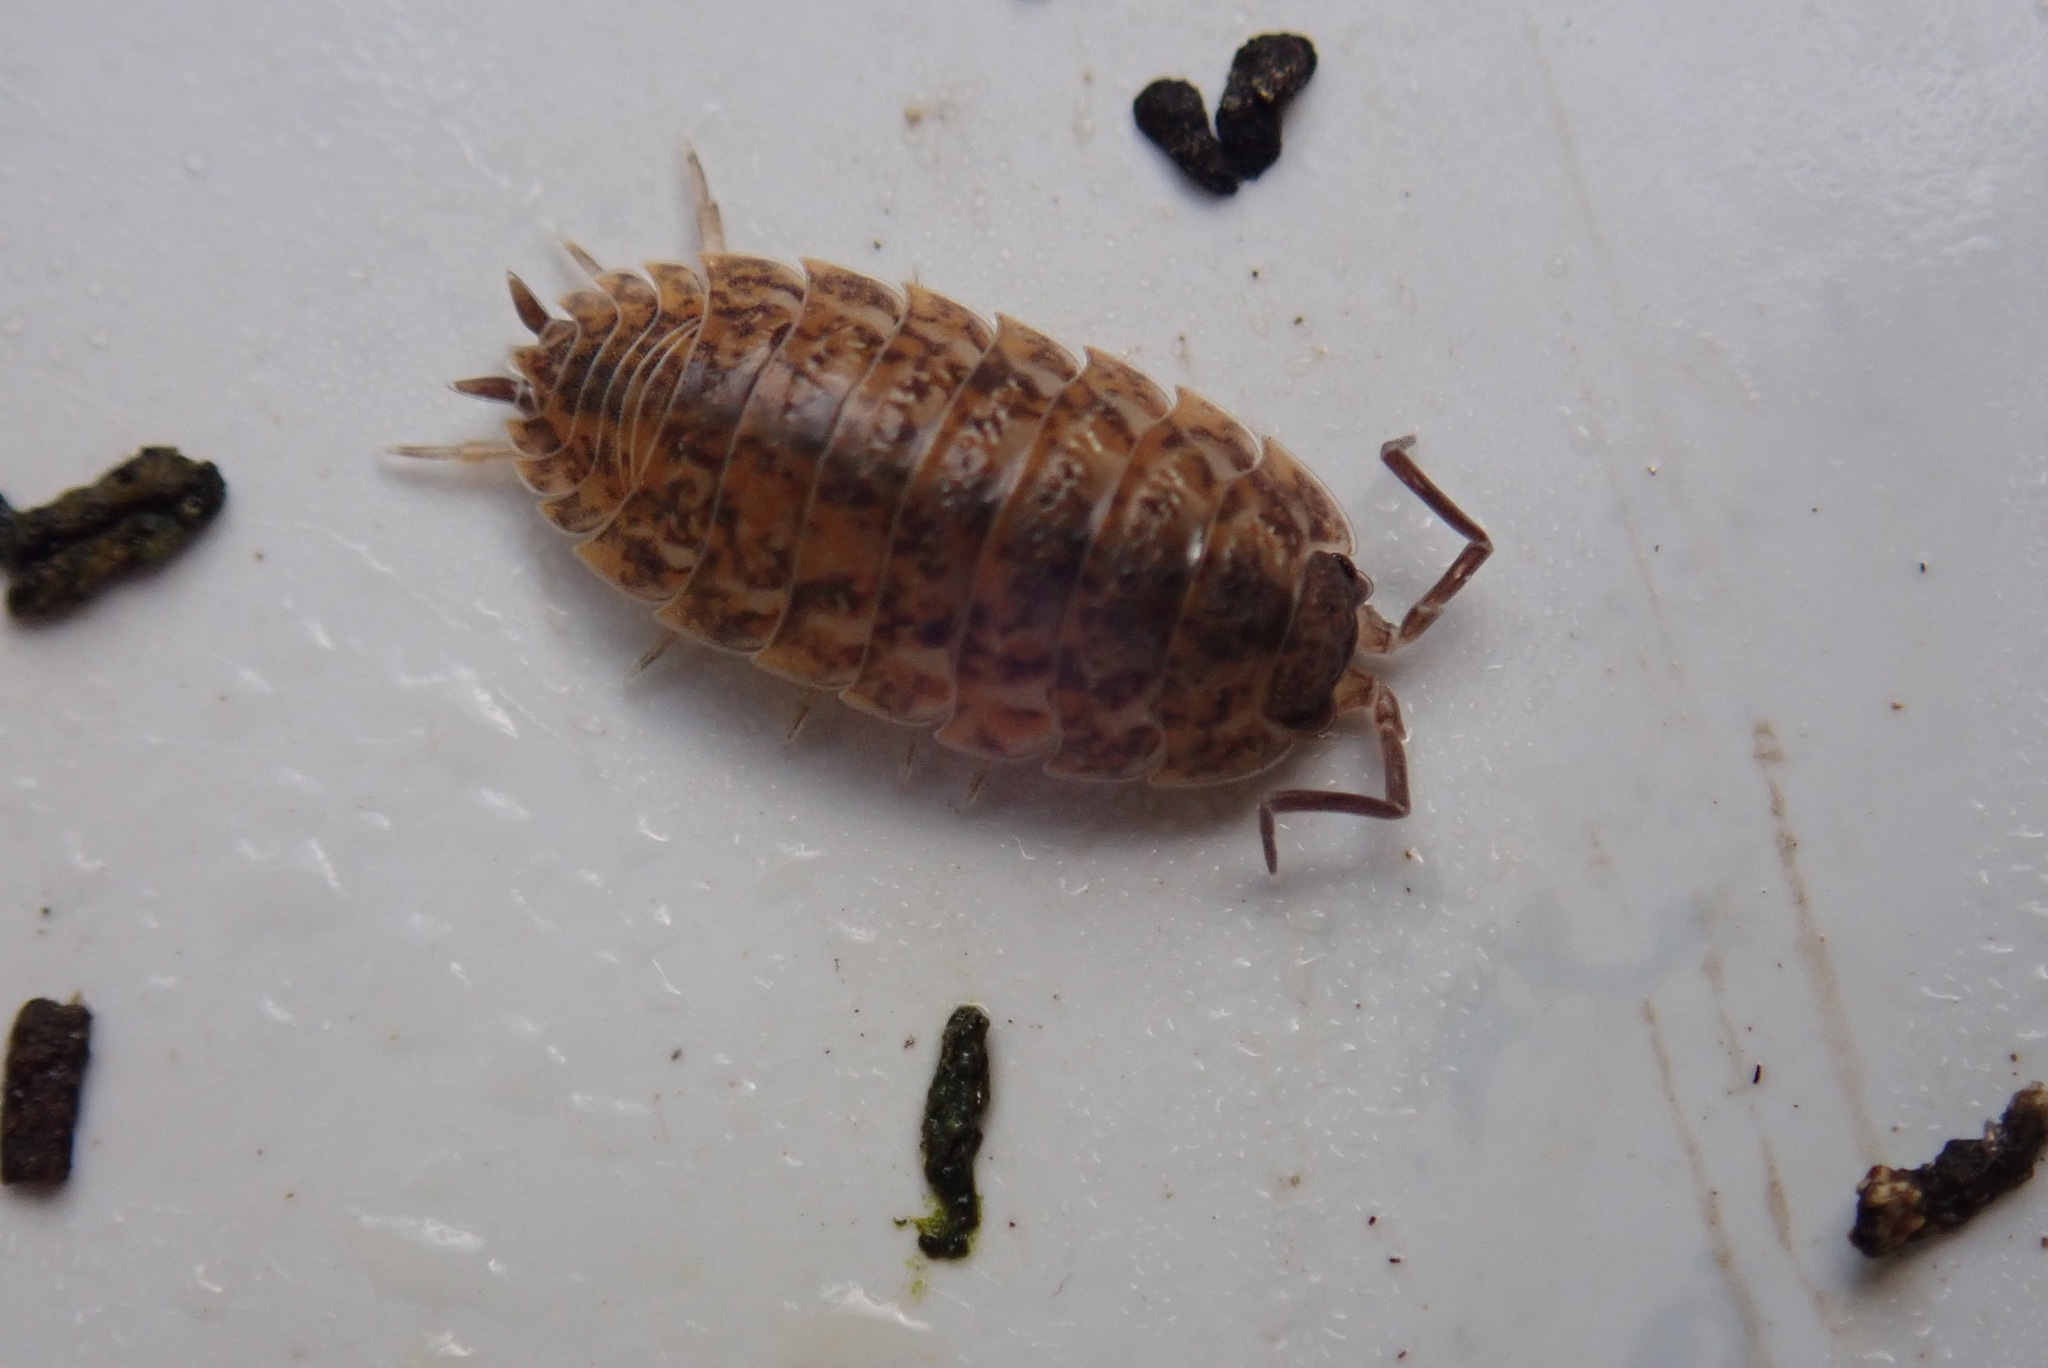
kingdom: Animalia
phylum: Arthropoda
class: Malacostraca
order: Isopoda
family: Trachelipodidae
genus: Trachelipus
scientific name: Trachelipus rathkii
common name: Isopod
